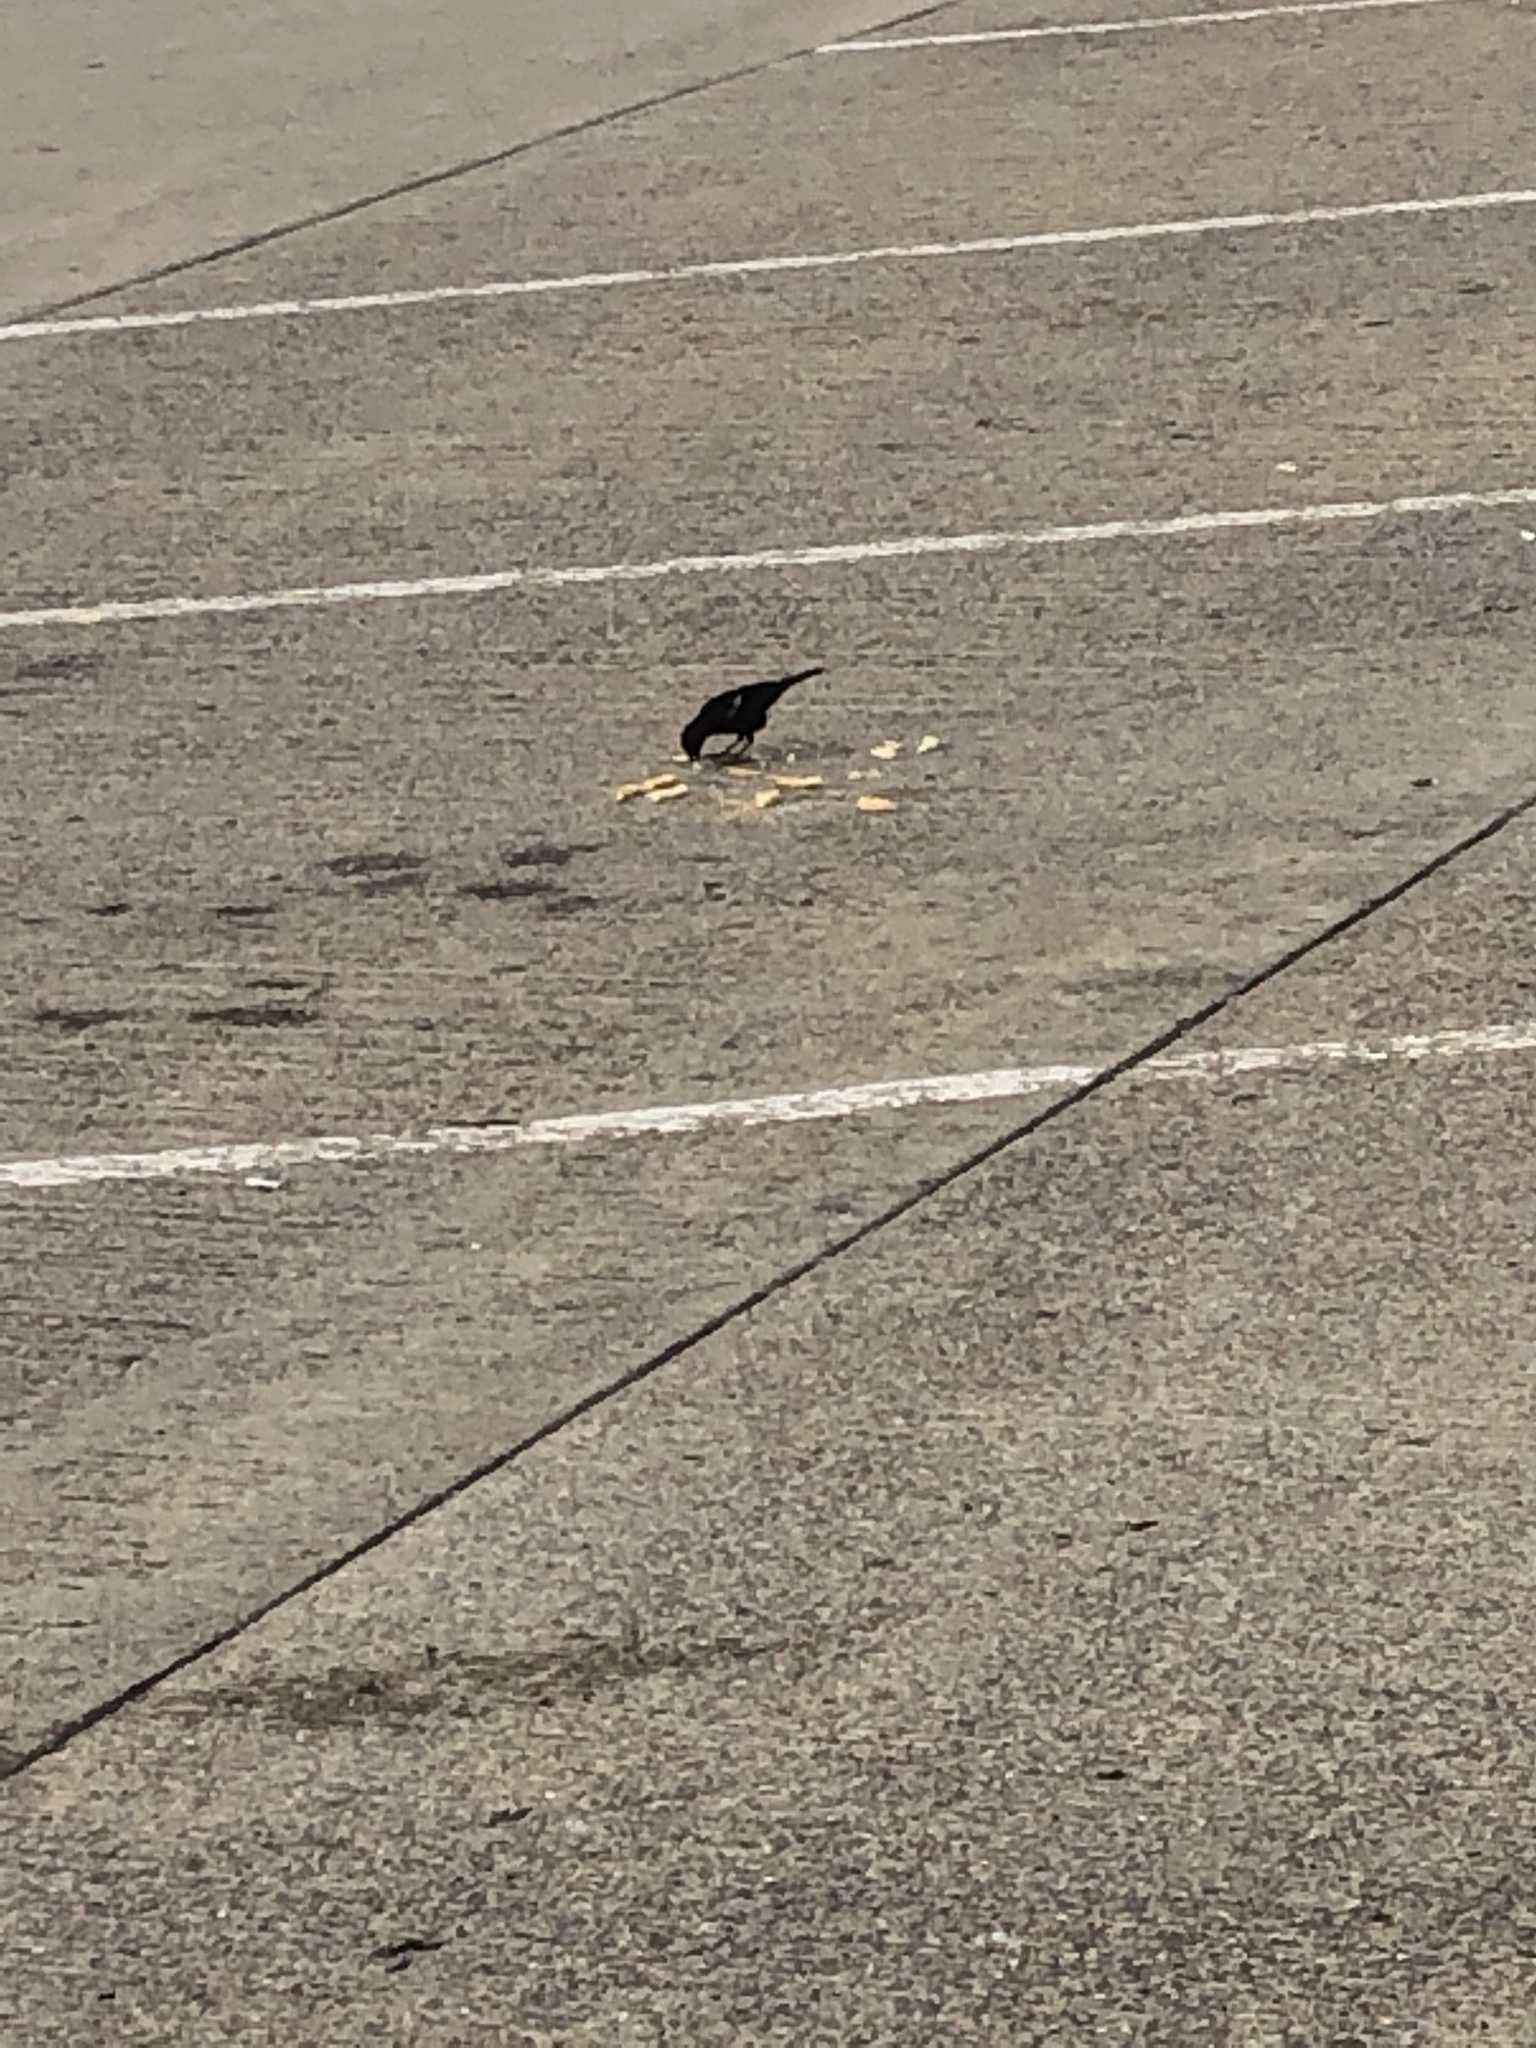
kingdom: Animalia
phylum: Chordata
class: Aves
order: Passeriformes
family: Icteridae
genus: Agelaius
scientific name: Agelaius phoeniceus
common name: Red-winged blackbird
